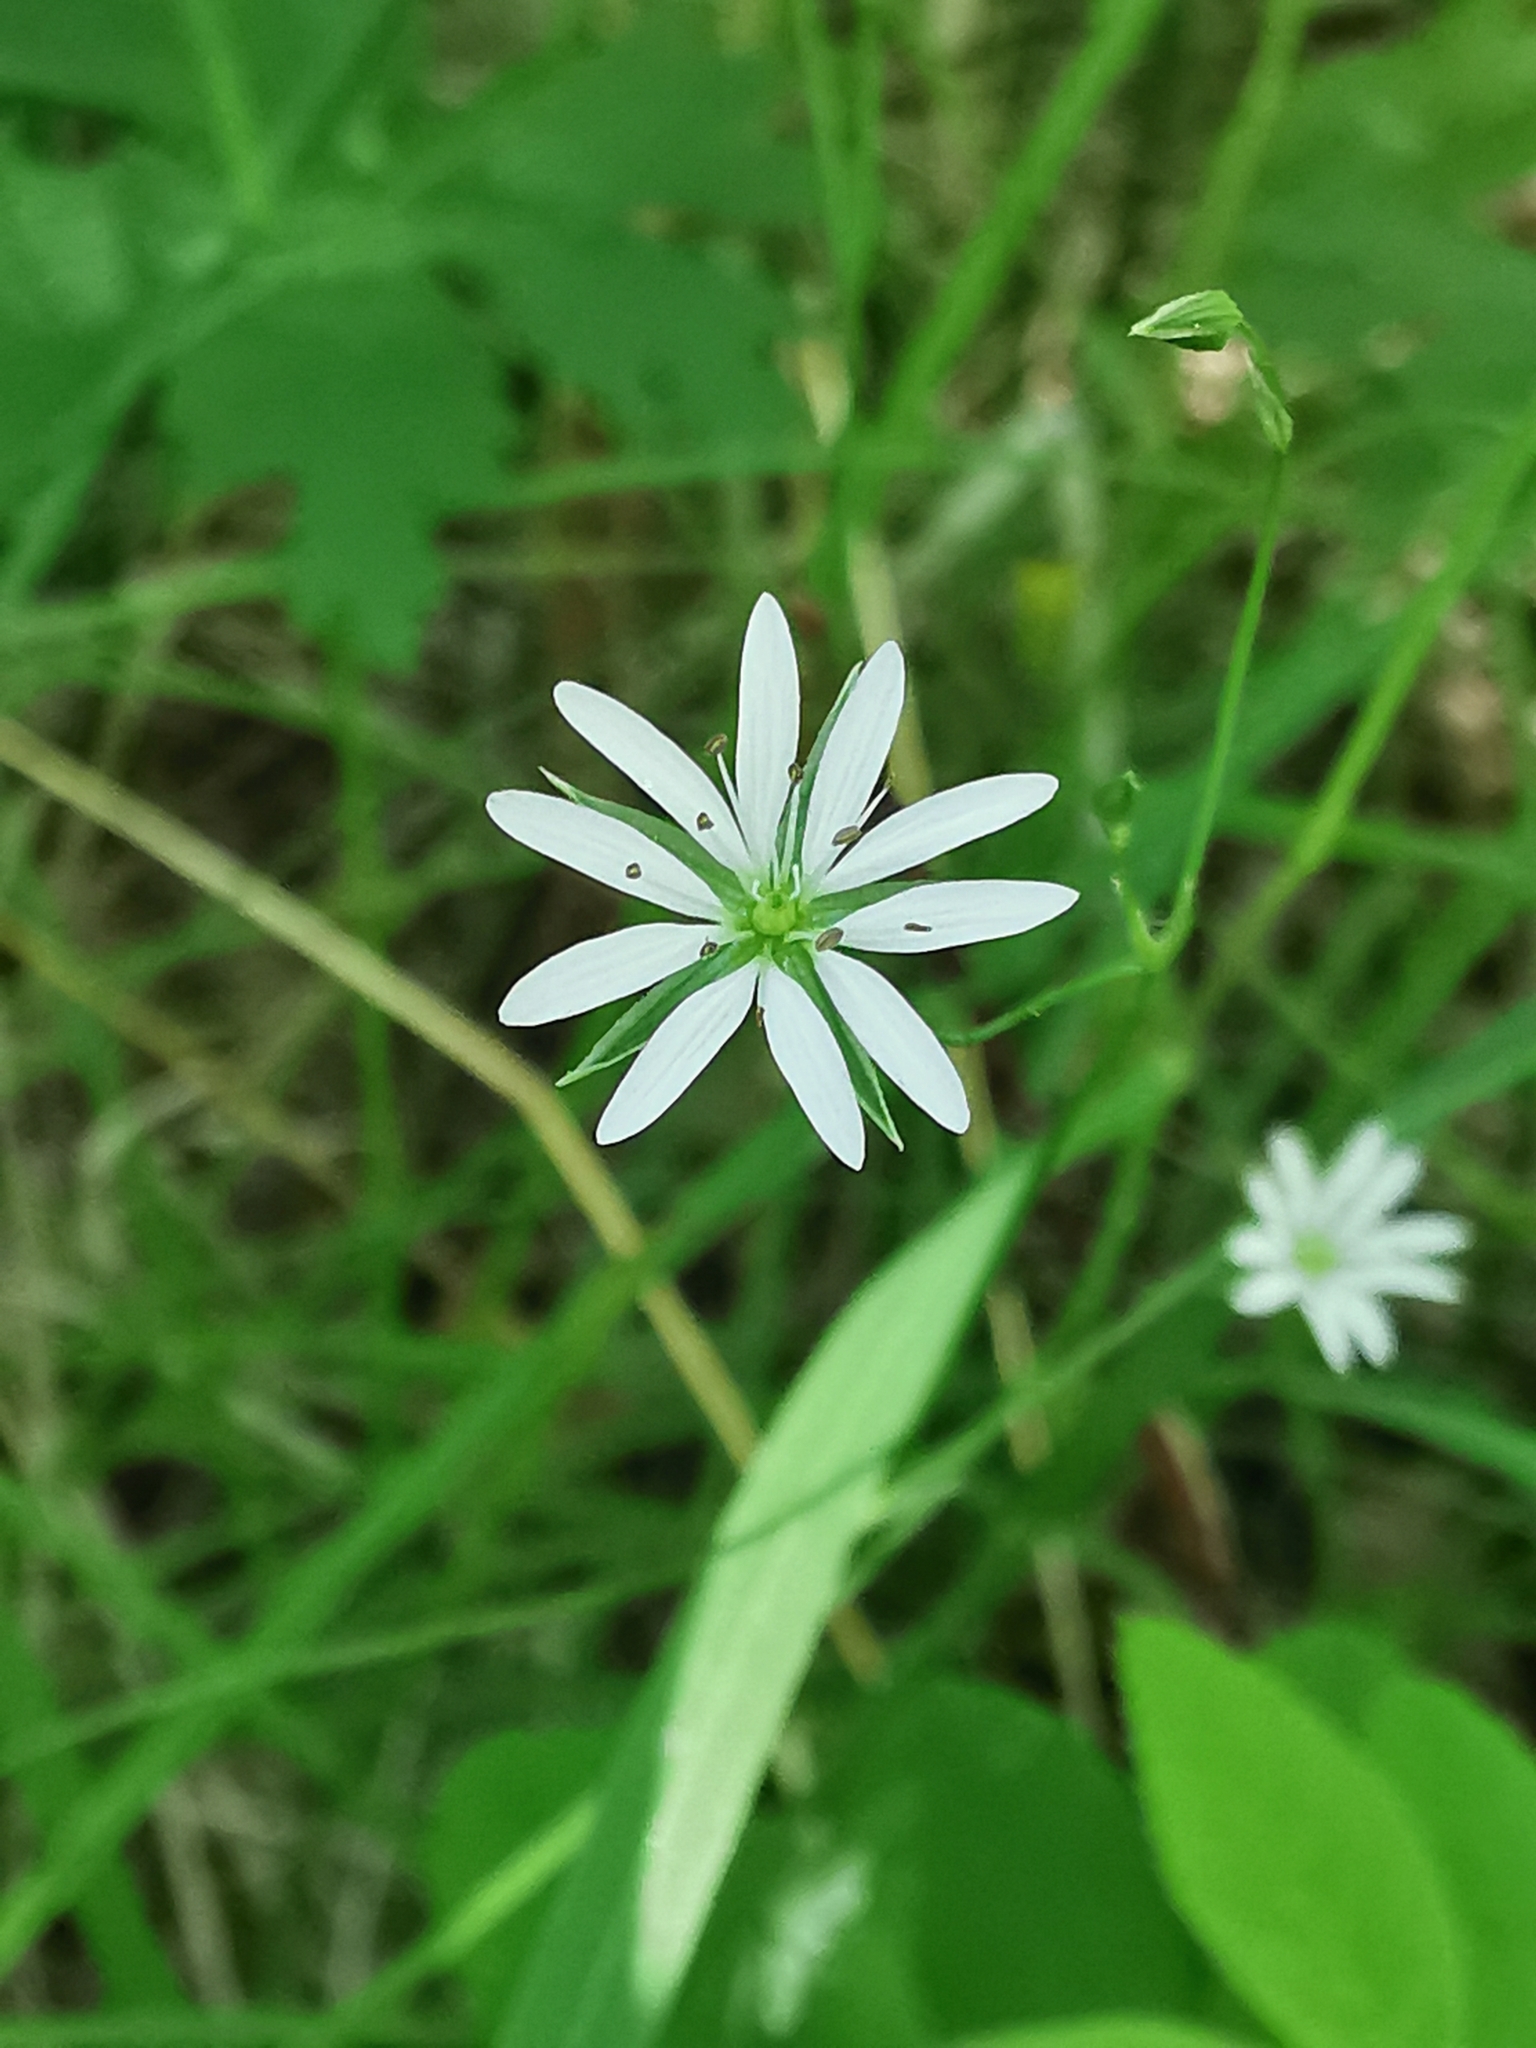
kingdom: Plantae
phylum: Tracheophyta
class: Magnoliopsida
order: Caryophyllales
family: Caryophyllaceae
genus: Stellaria
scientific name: Stellaria graminea
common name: Grass-like starwort
